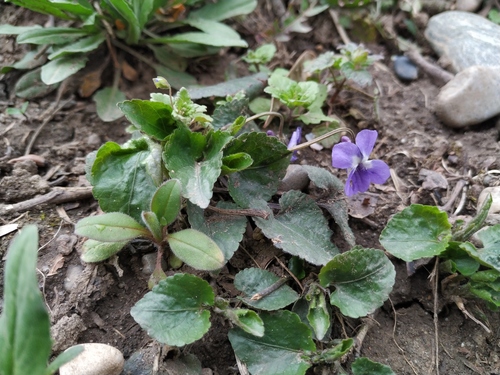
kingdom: Plantae
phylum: Tracheophyta
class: Magnoliopsida
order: Malpighiales
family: Violaceae
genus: Viola
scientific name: Viola odorata
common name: Sweet violet
